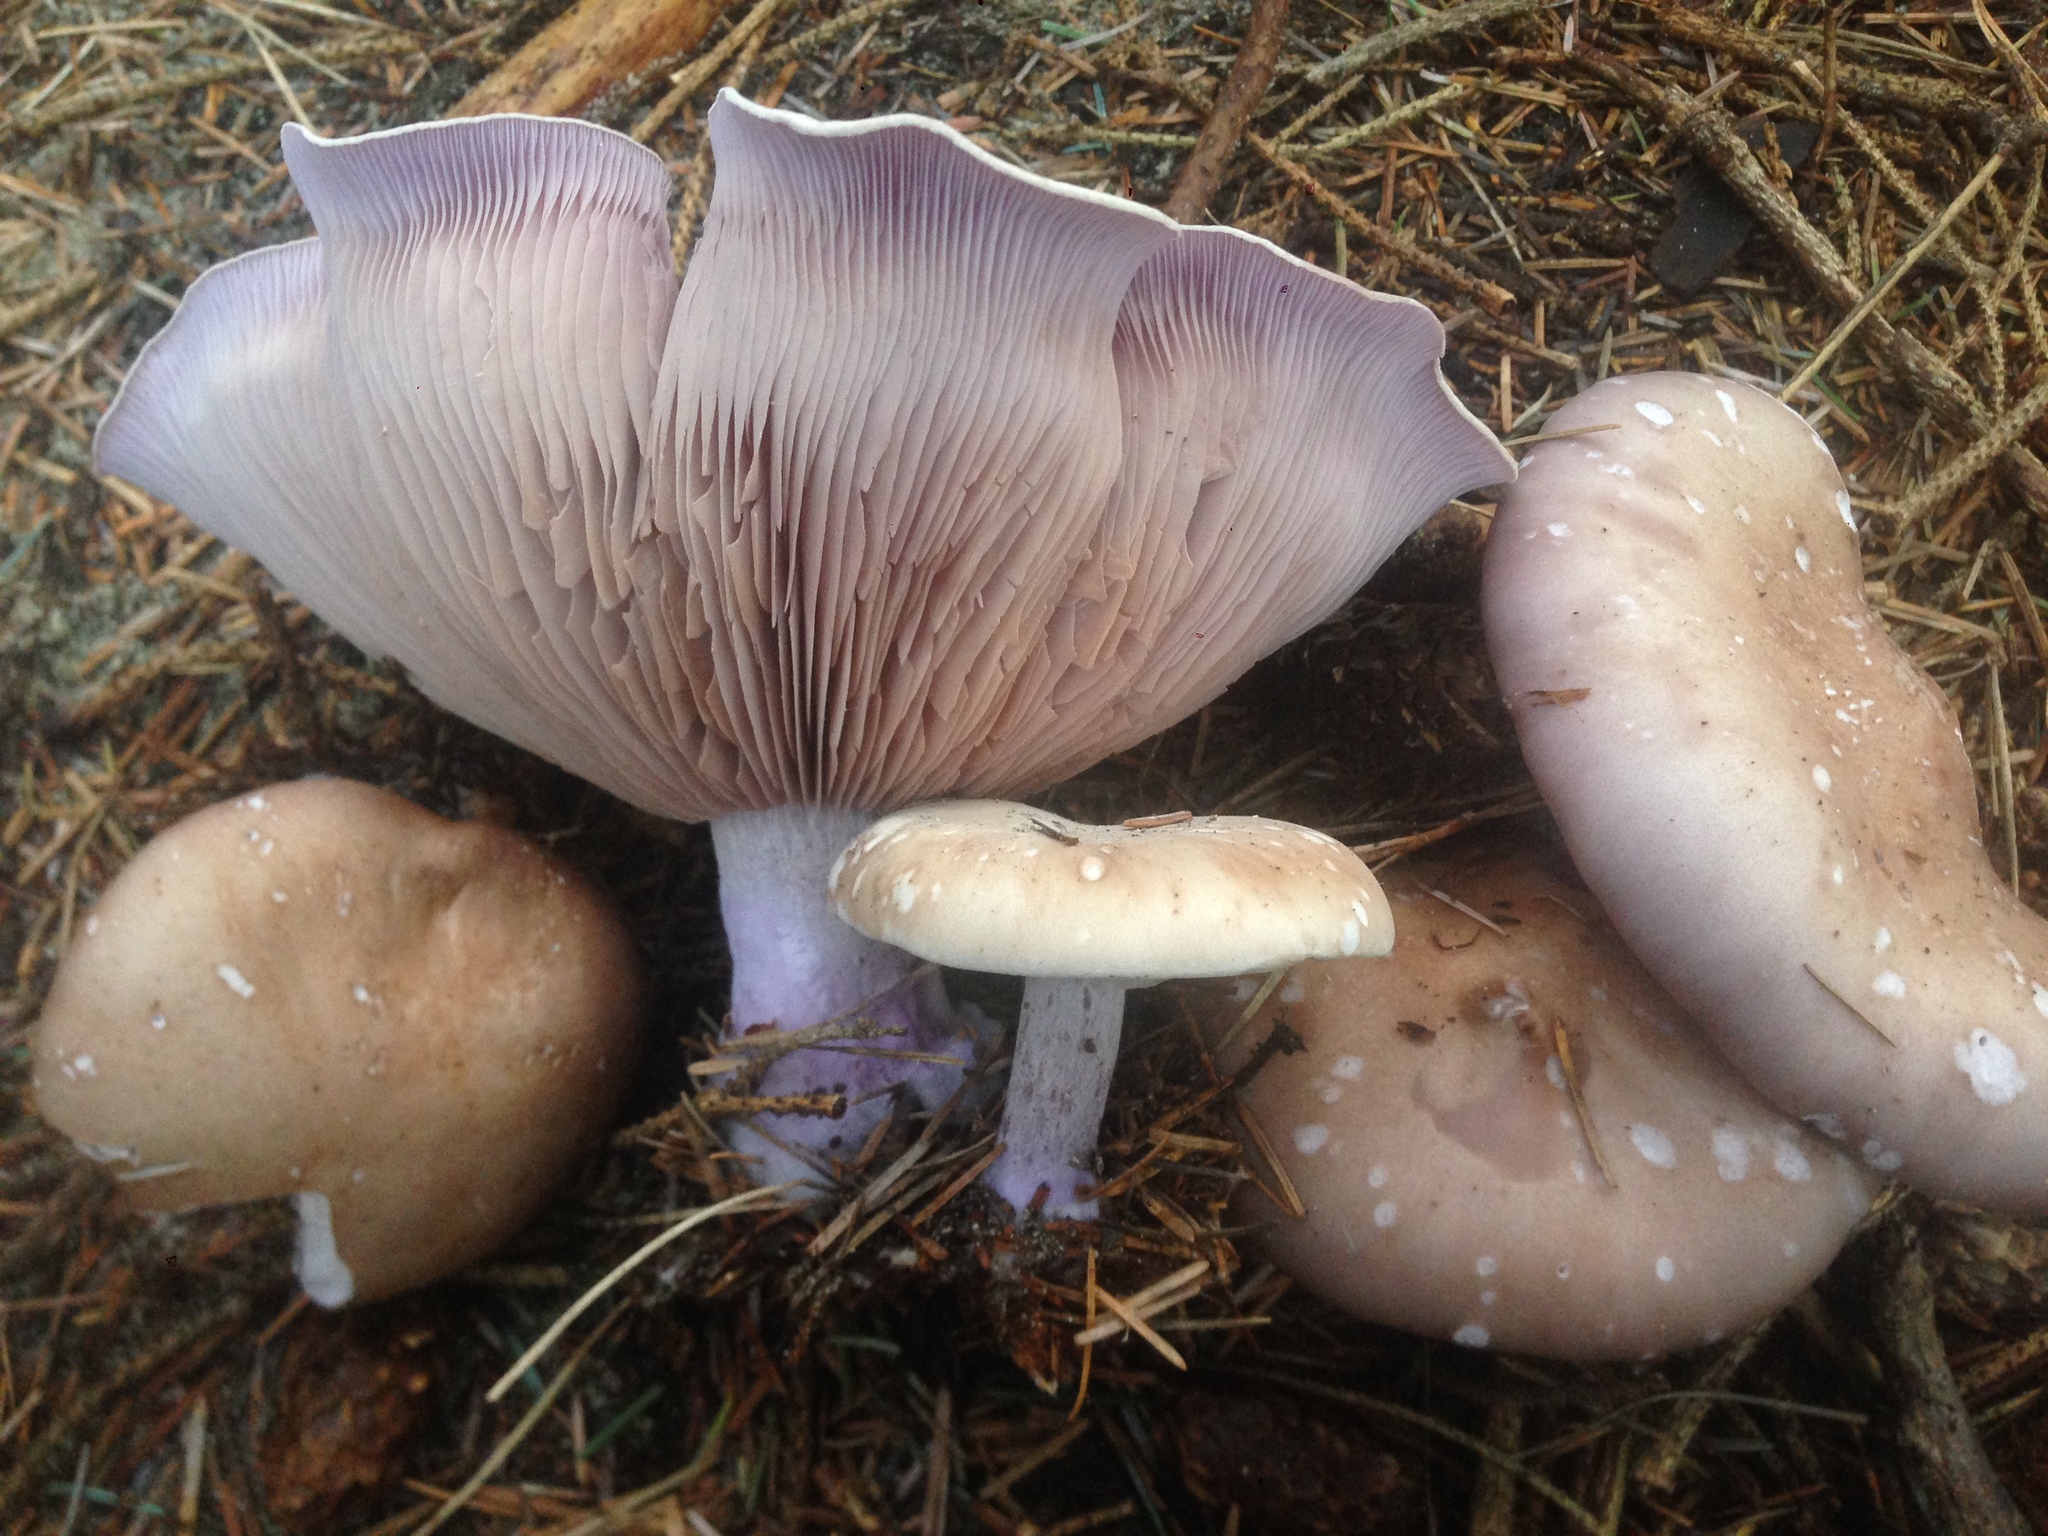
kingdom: Fungi
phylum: Basidiomycota
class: Agaricomycetes
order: Agaricales
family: Tricholomataceae
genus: Collybia
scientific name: Collybia
